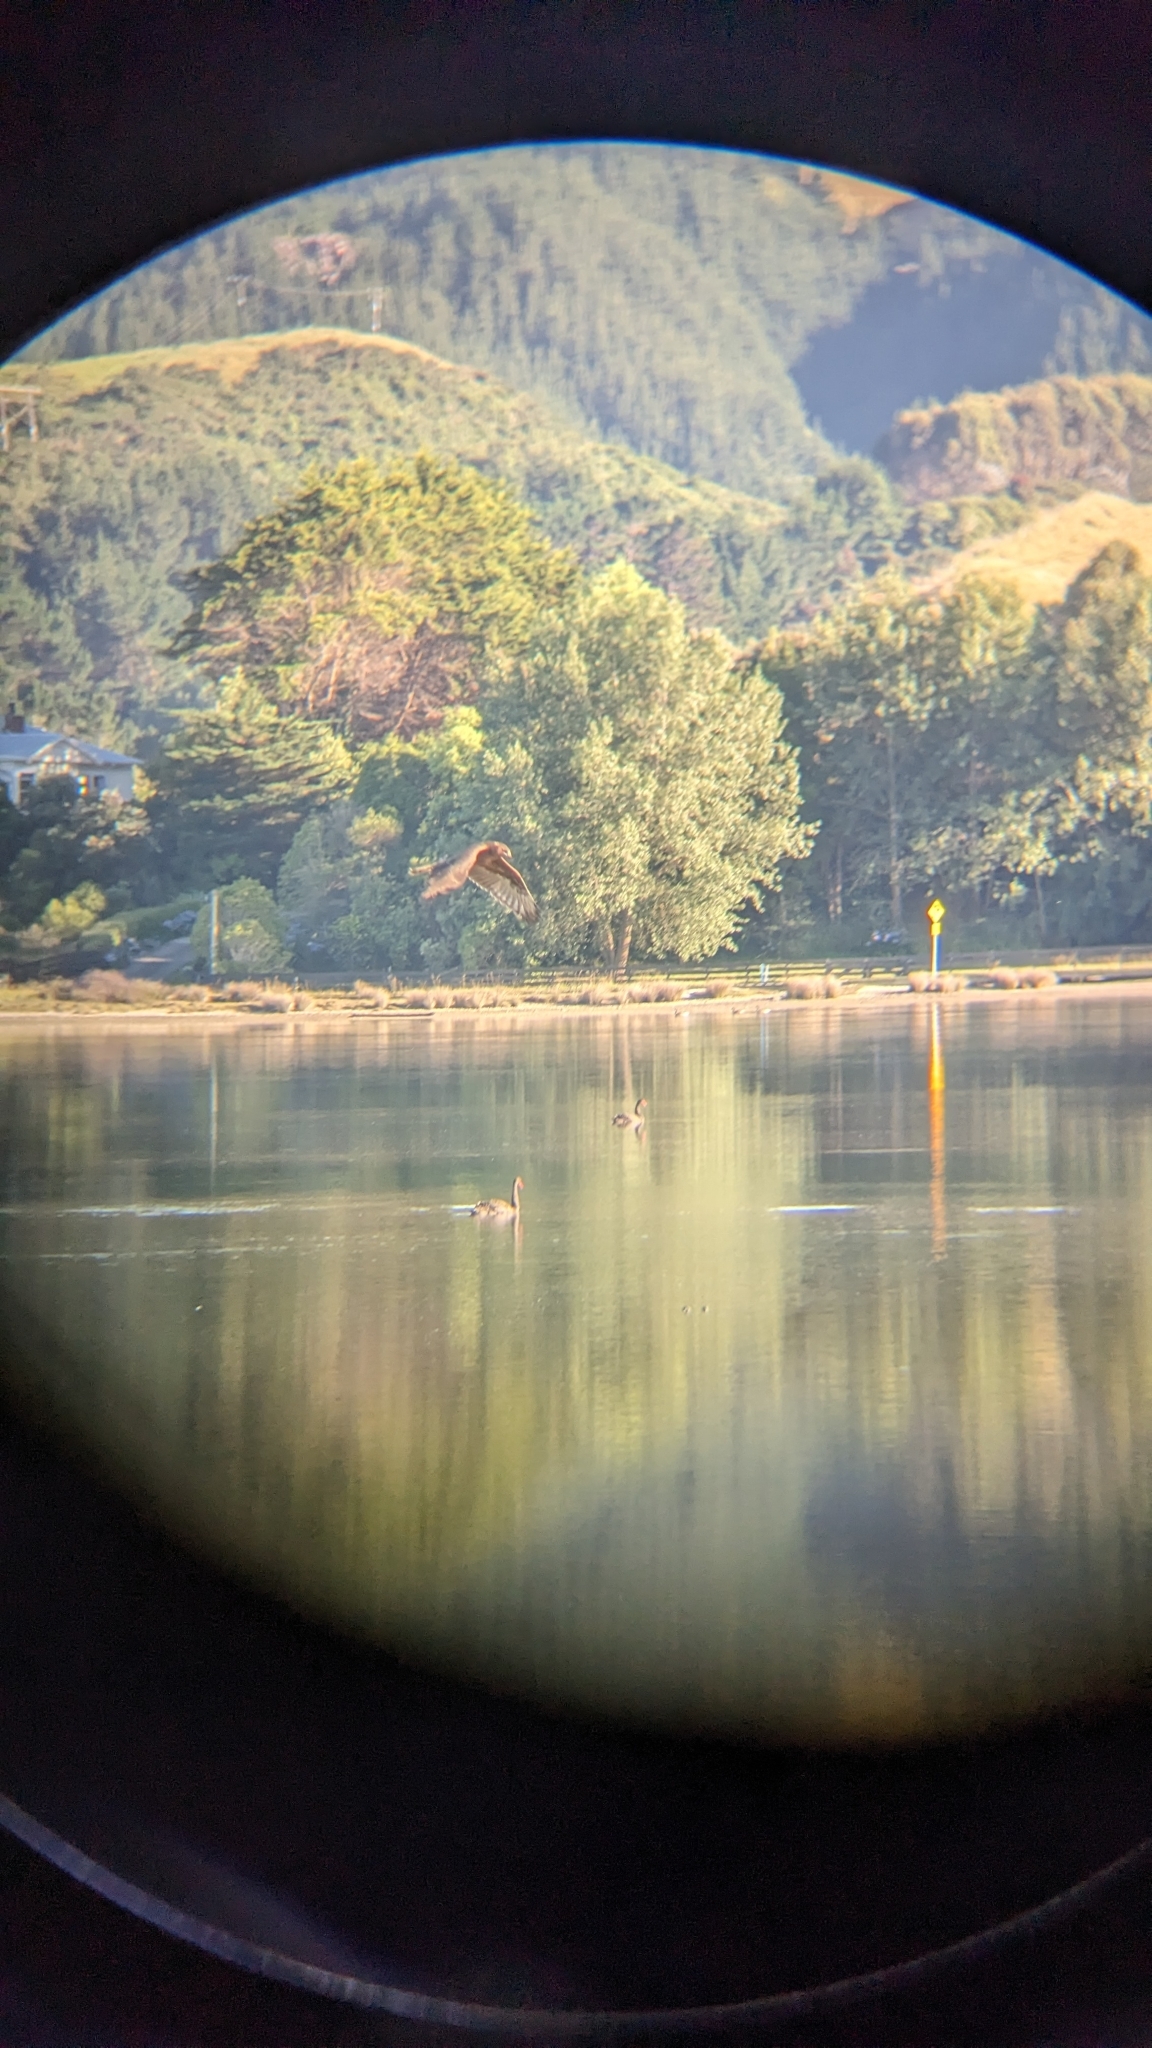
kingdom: Animalia
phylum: Chordata
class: Aves
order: Accipitriformes
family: Accipitridae
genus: Circus
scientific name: Circus approximans
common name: Swamp harrier
